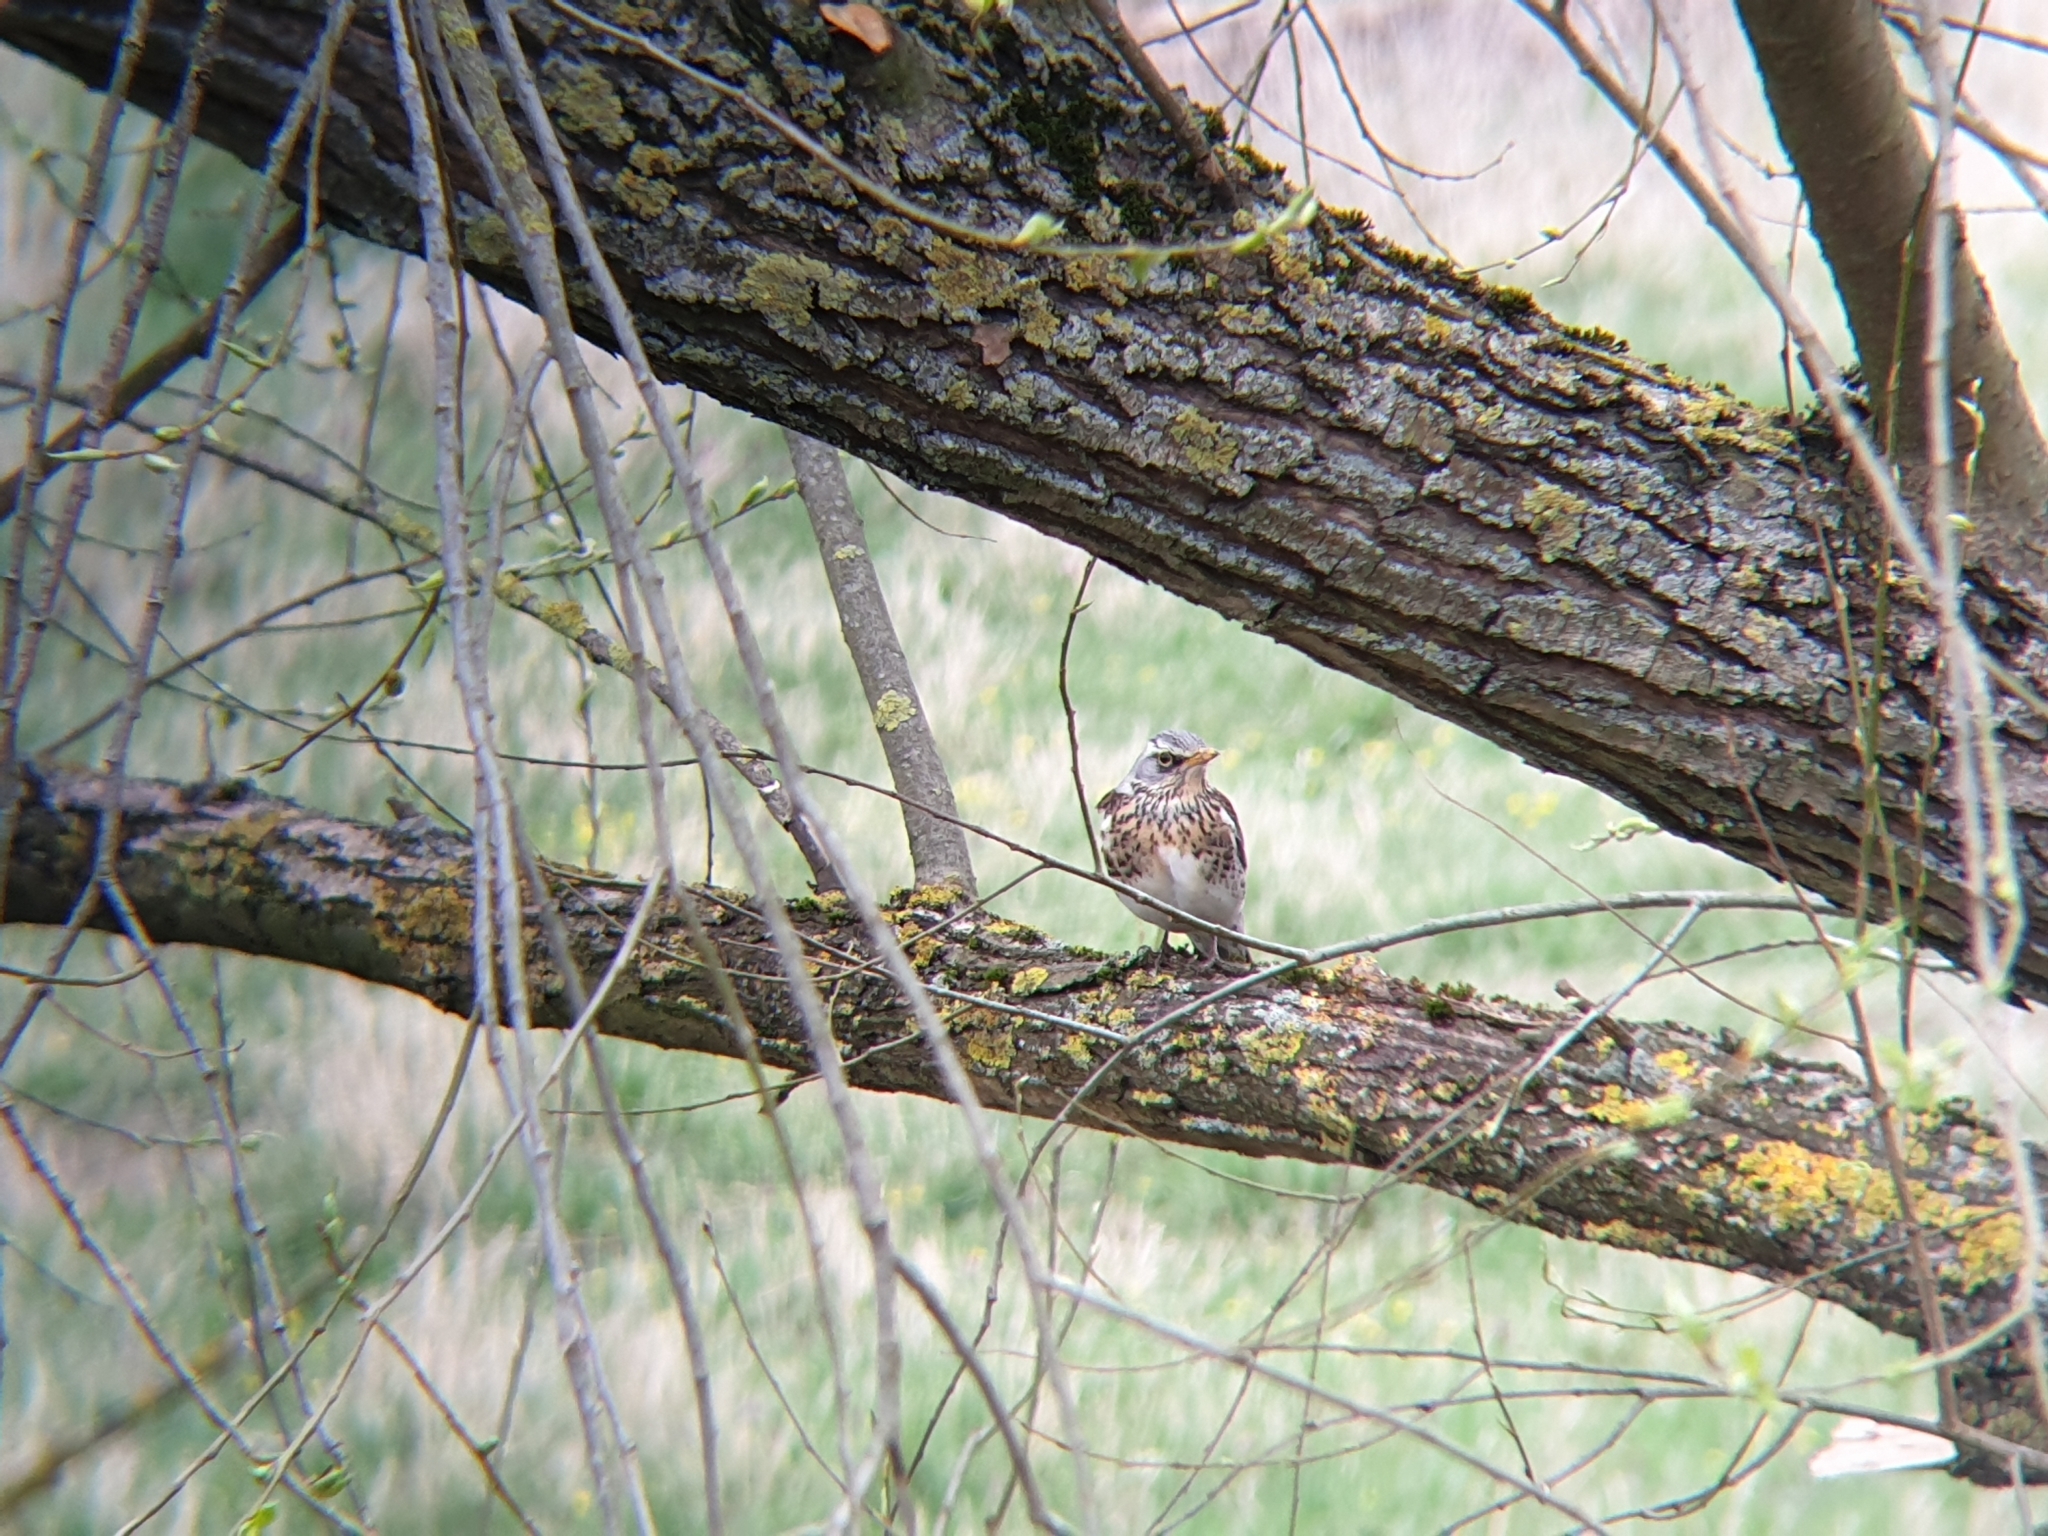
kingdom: Animalia
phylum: Chordata
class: Aves
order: Passeriformes
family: Turdidae
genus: Turdus
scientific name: Turdus pilaris
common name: Fieldfare
